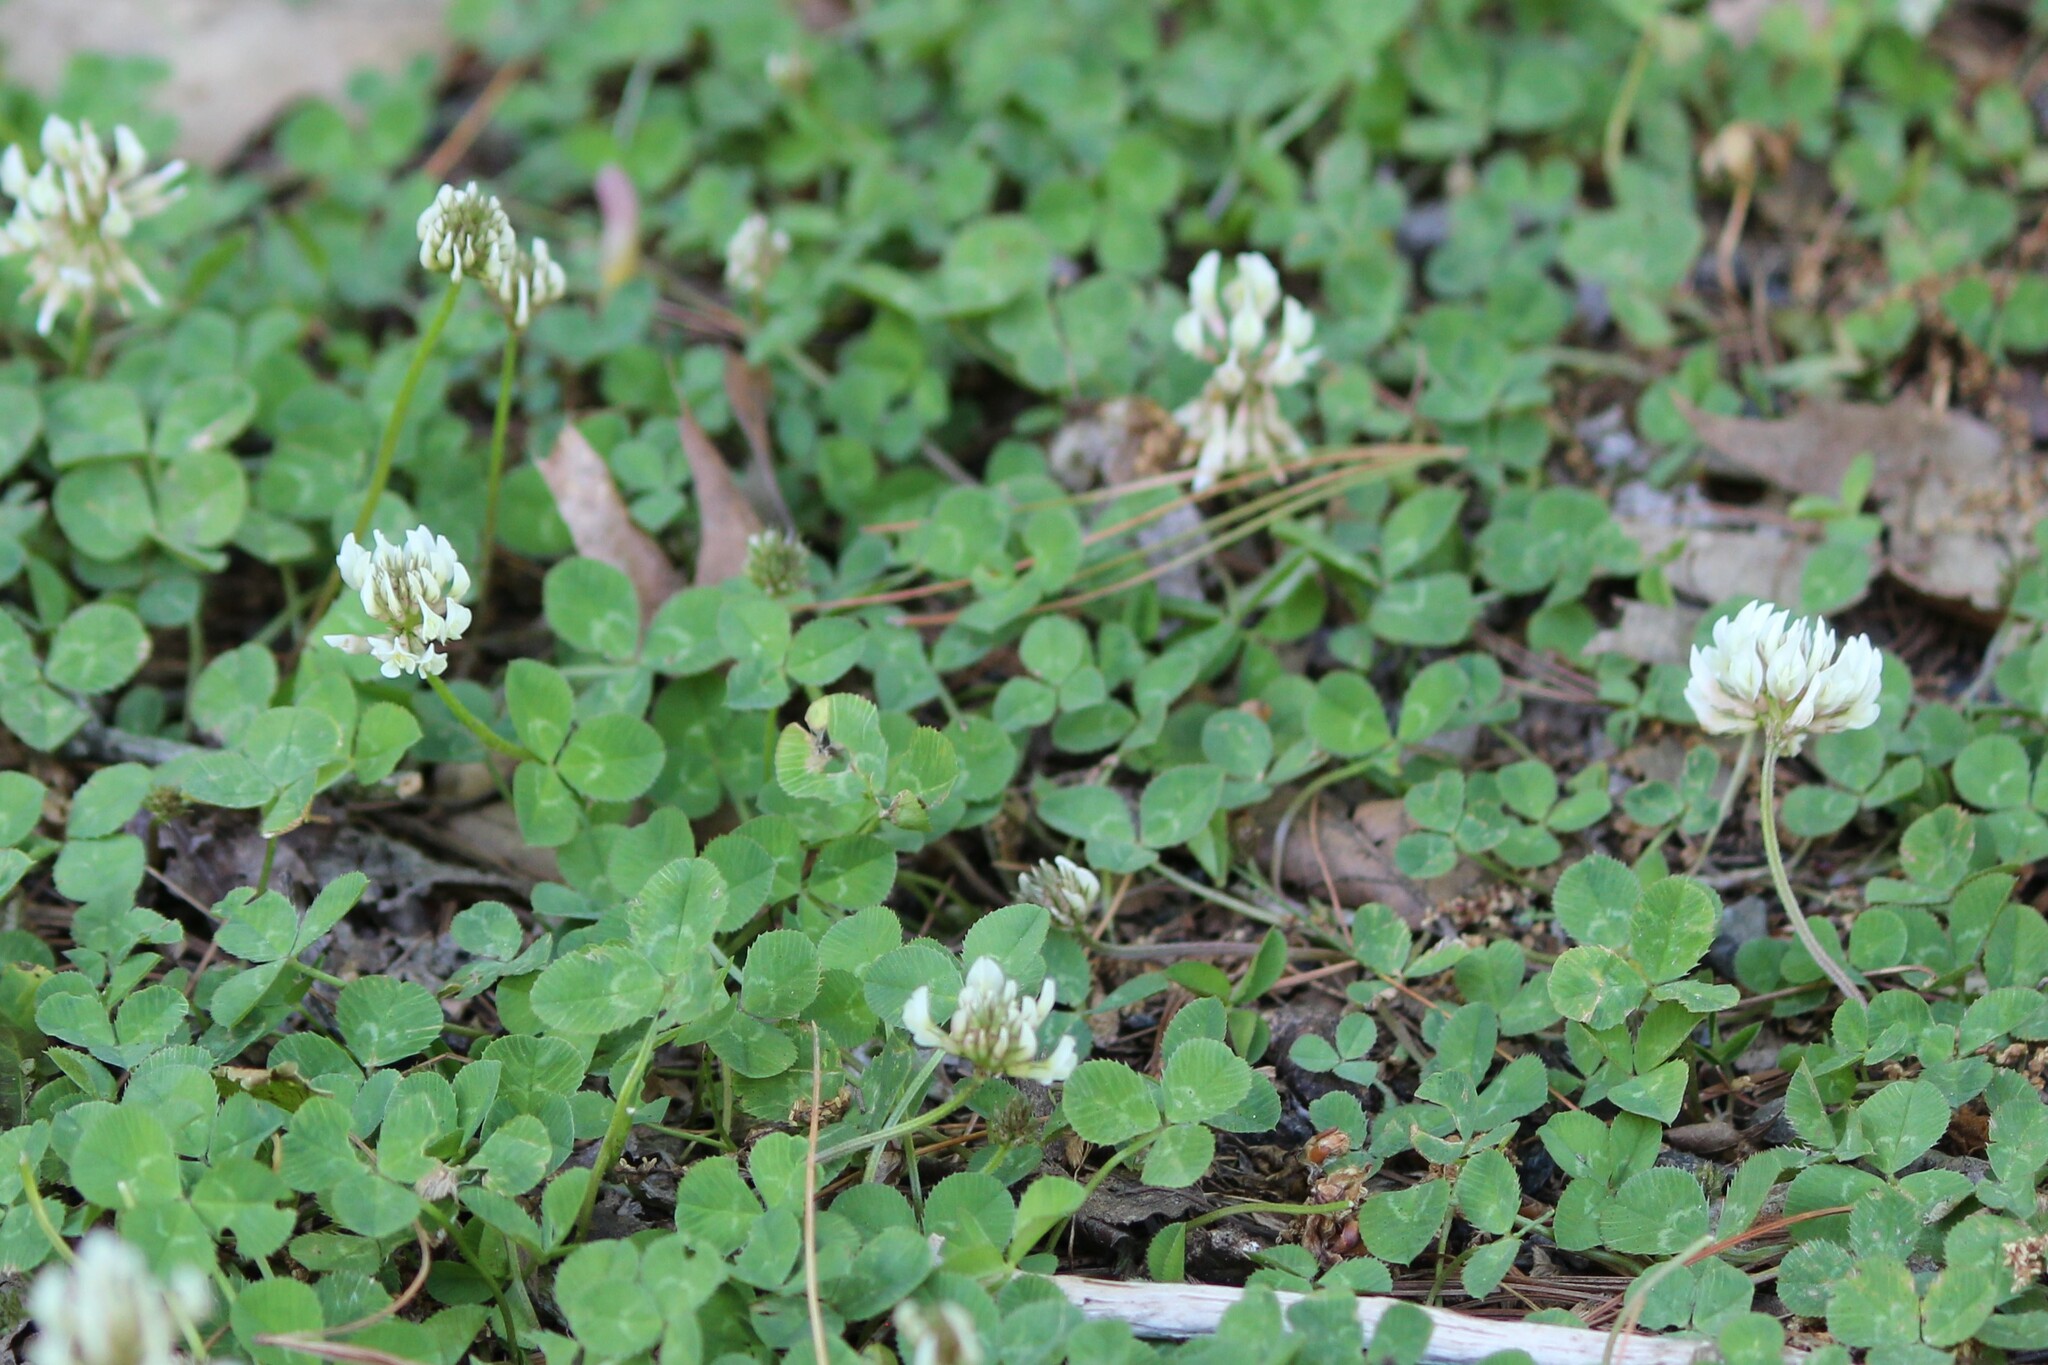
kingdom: Plantae
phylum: Tracheophyta
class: Magnoliopsida
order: Fabales
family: Fabaceae
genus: Trifolium
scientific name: Trifolium repens
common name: White clover
